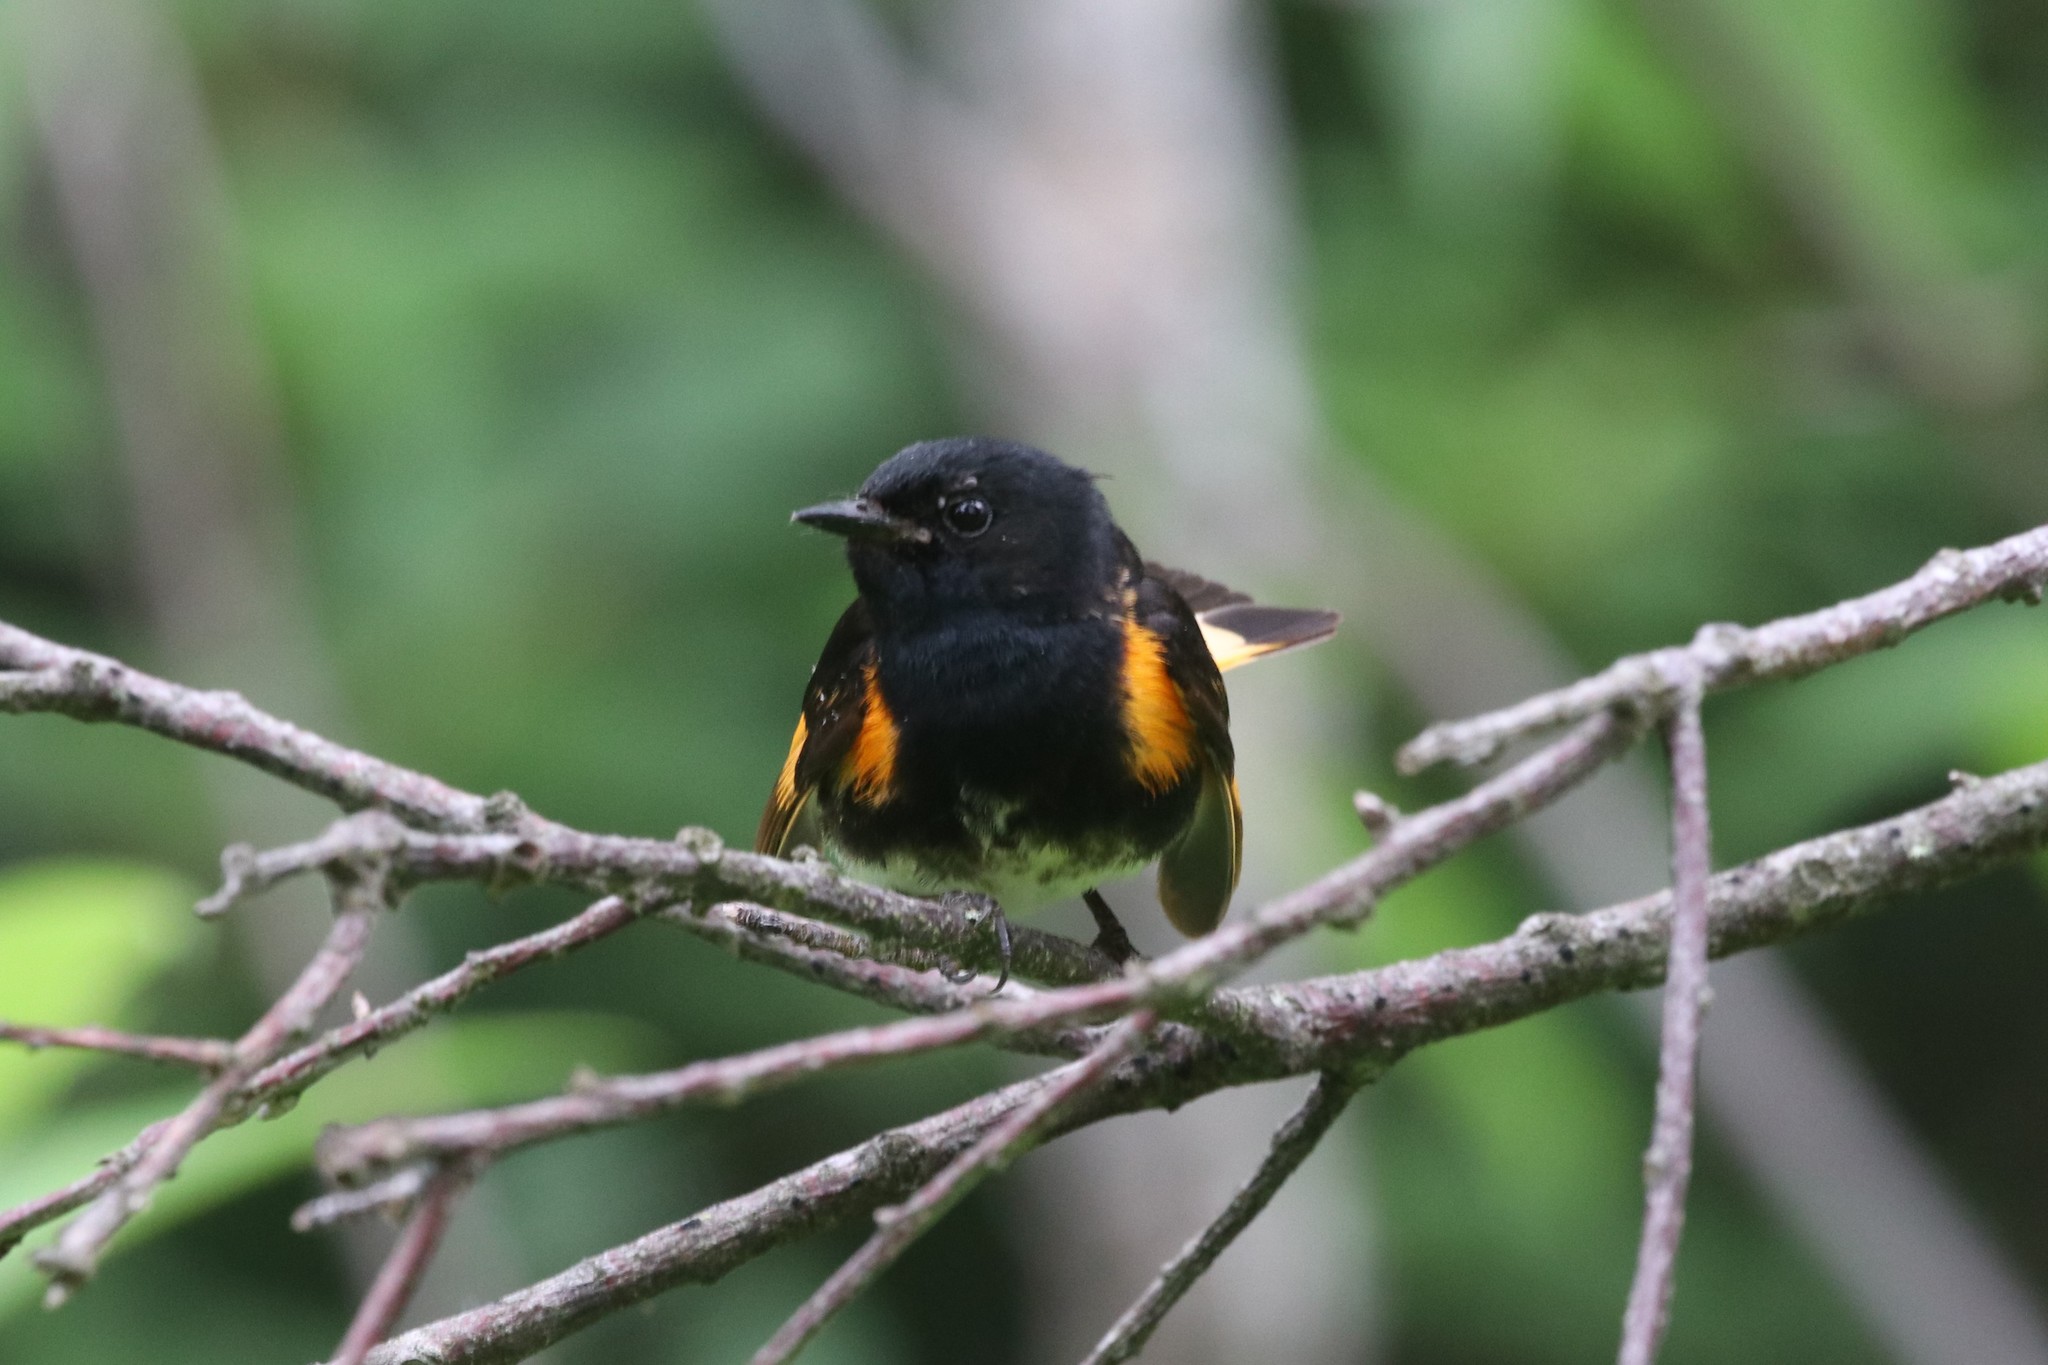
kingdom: Animalia
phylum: Chordata
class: Aves
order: Passeriformes
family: Parulidae
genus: Setophaga
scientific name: Setophaga ruticilla
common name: American redstart
